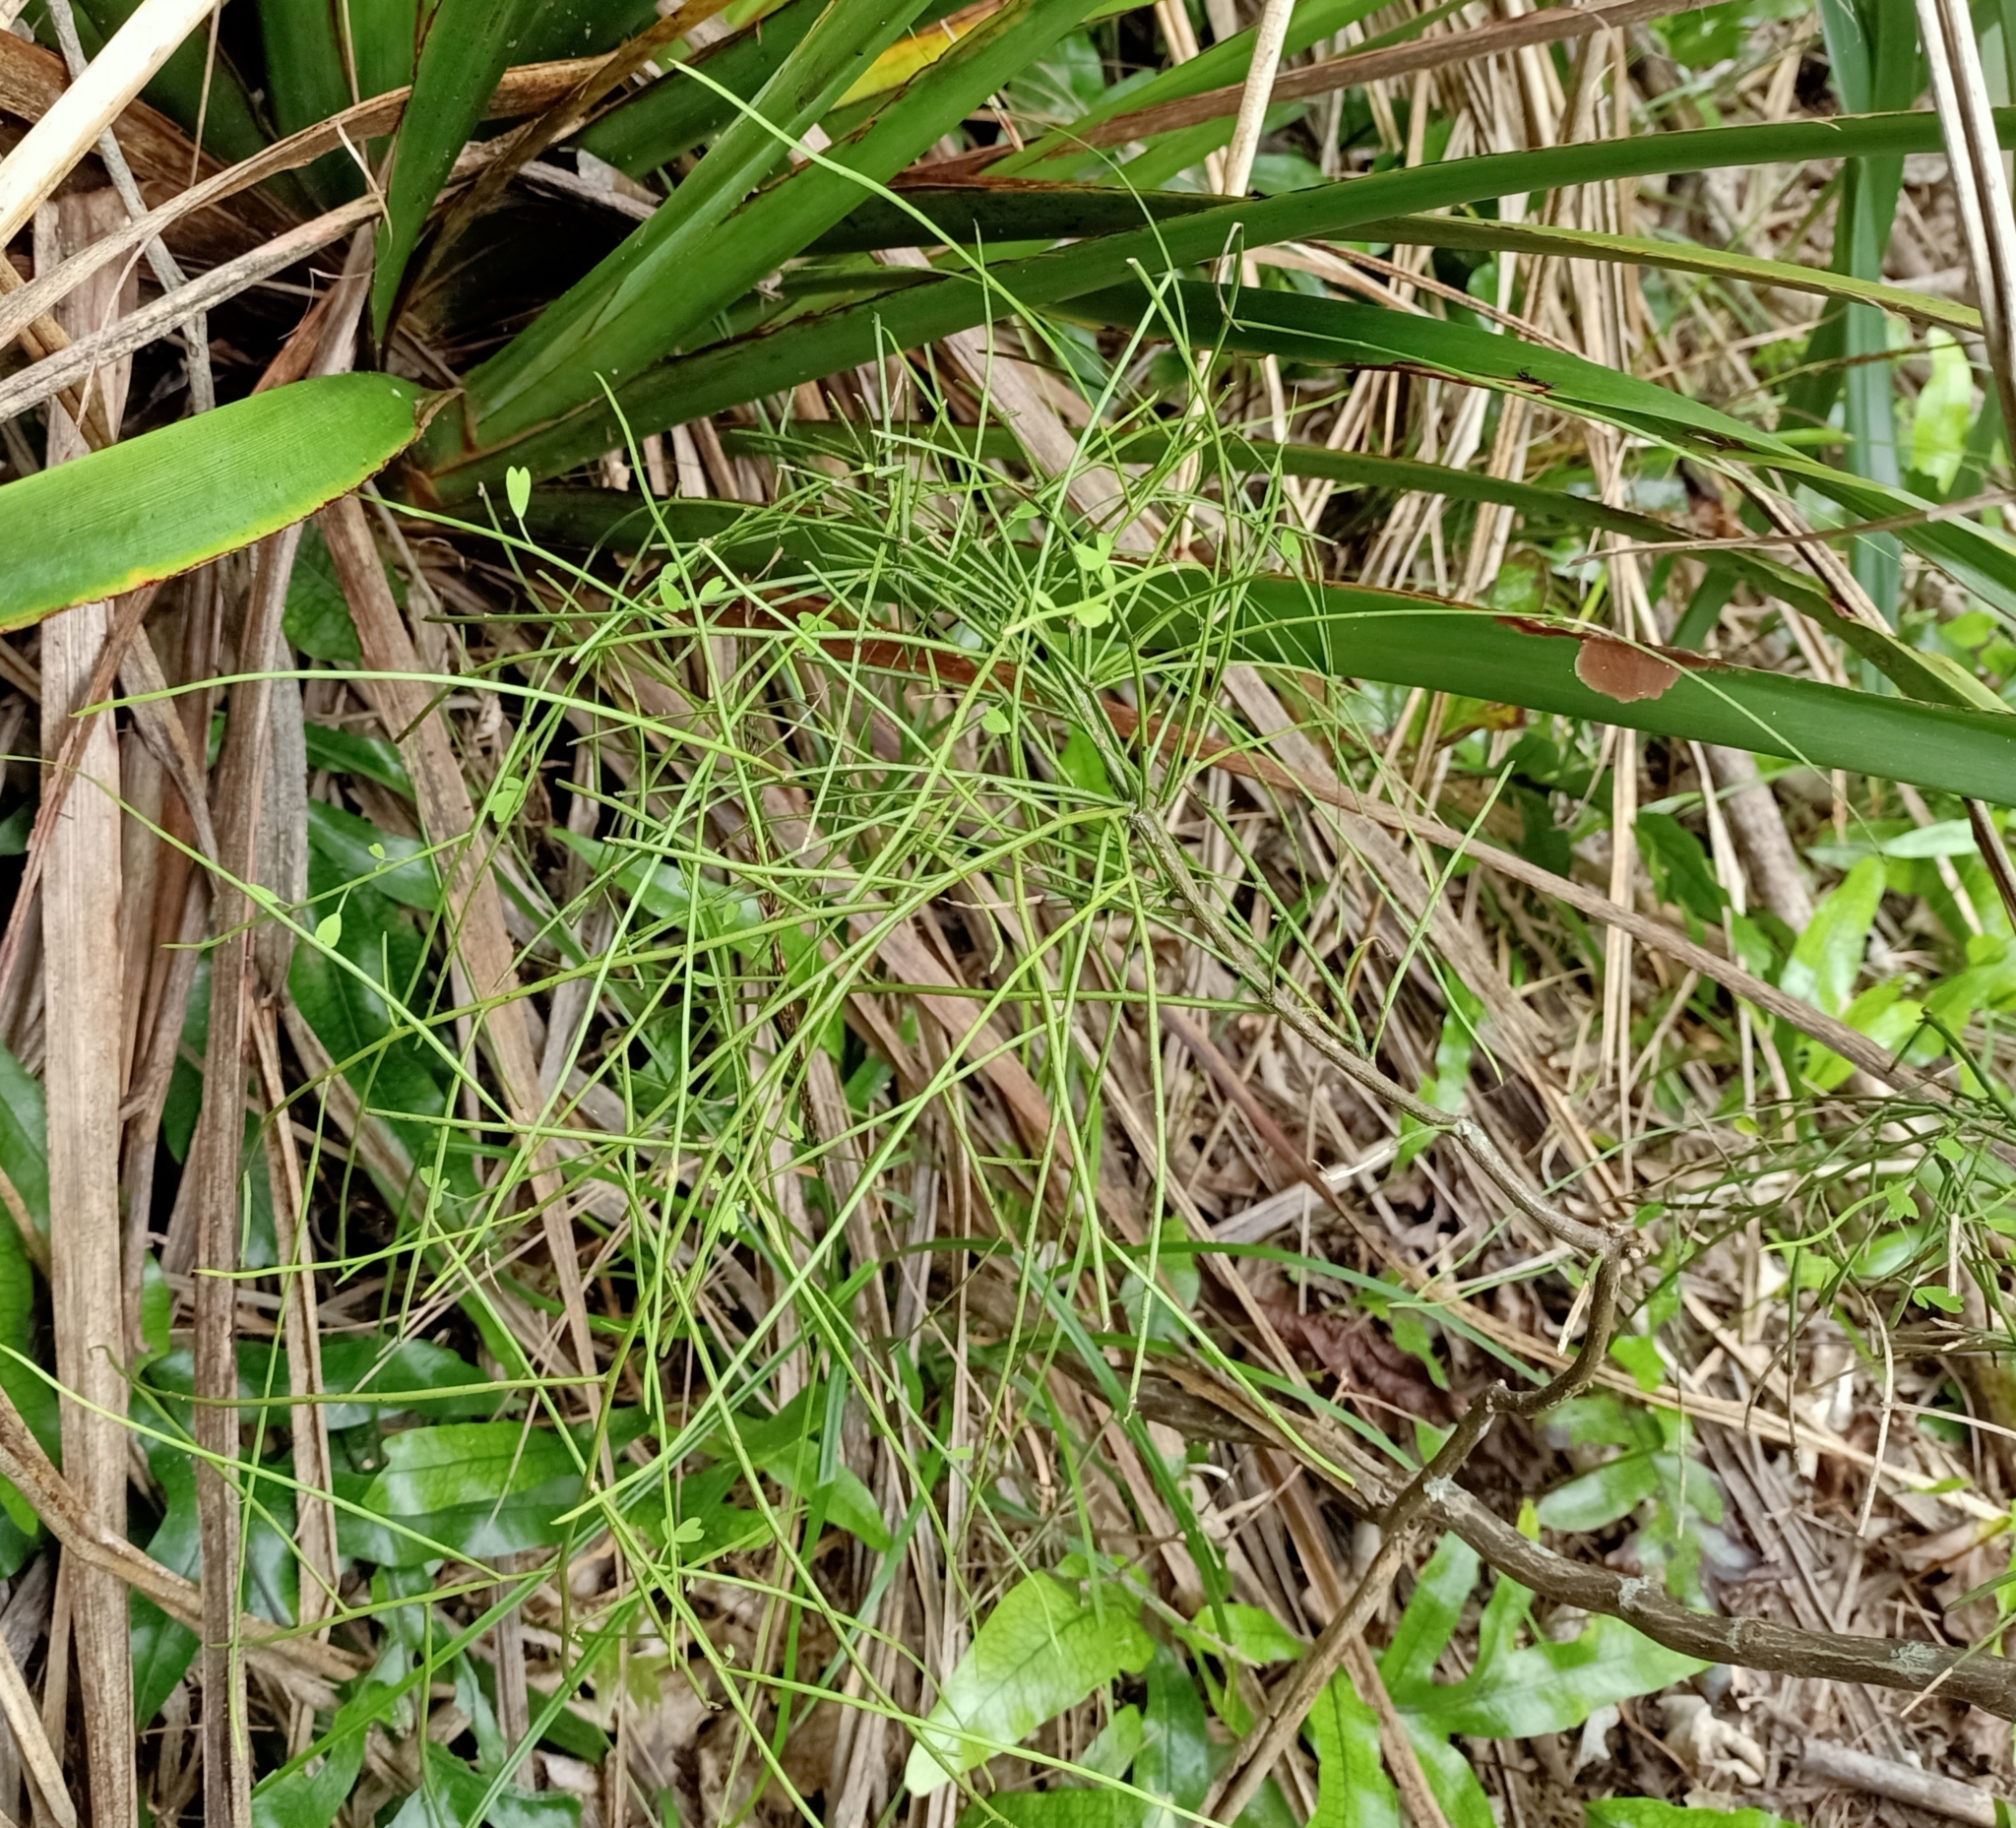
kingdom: Plantae
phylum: Tracheophyta
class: Magnoliopsida
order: Fabales
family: Fabaceae
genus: Carmichaelia
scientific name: Carmichaelia australis
